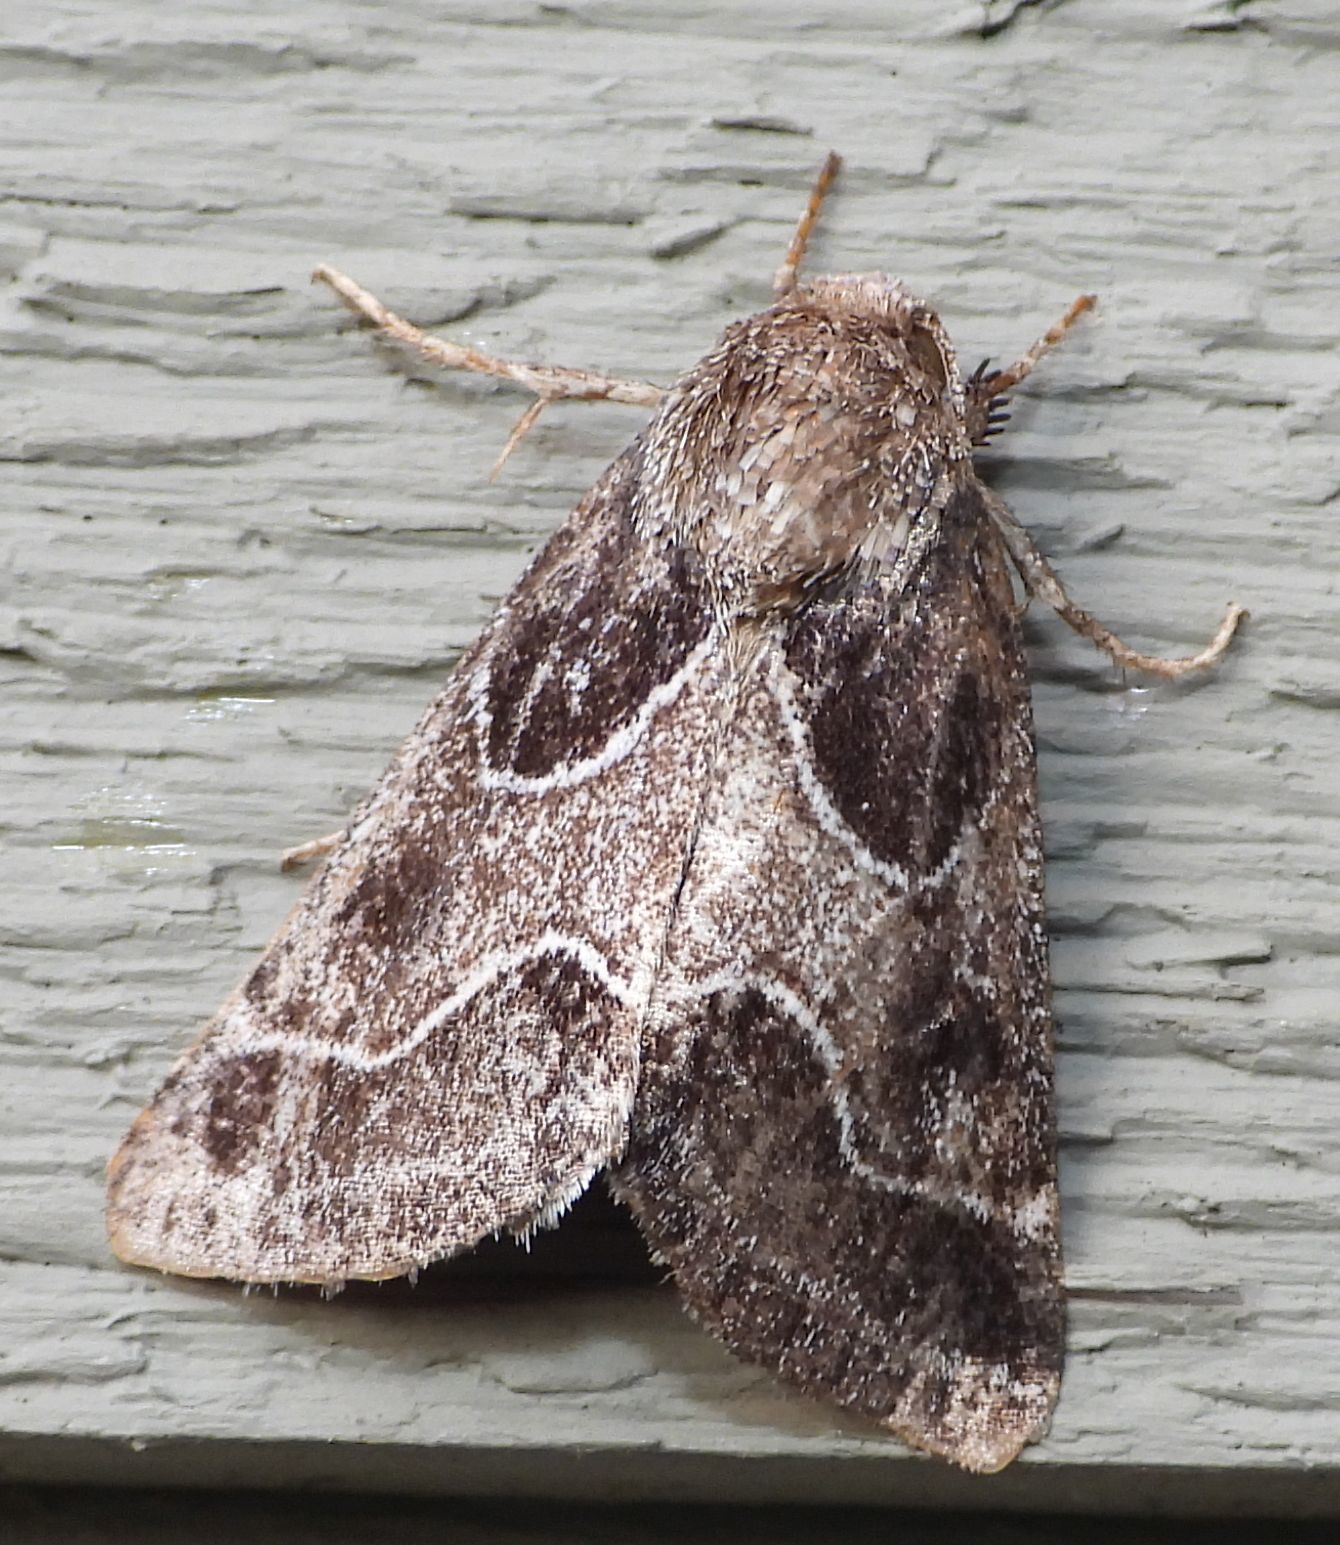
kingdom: Animalia
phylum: Arthropoda
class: Insecta
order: Lepidoptera
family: Noctuidae
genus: Schinia
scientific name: Schinia rivulosa
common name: Scarce meal-moth
